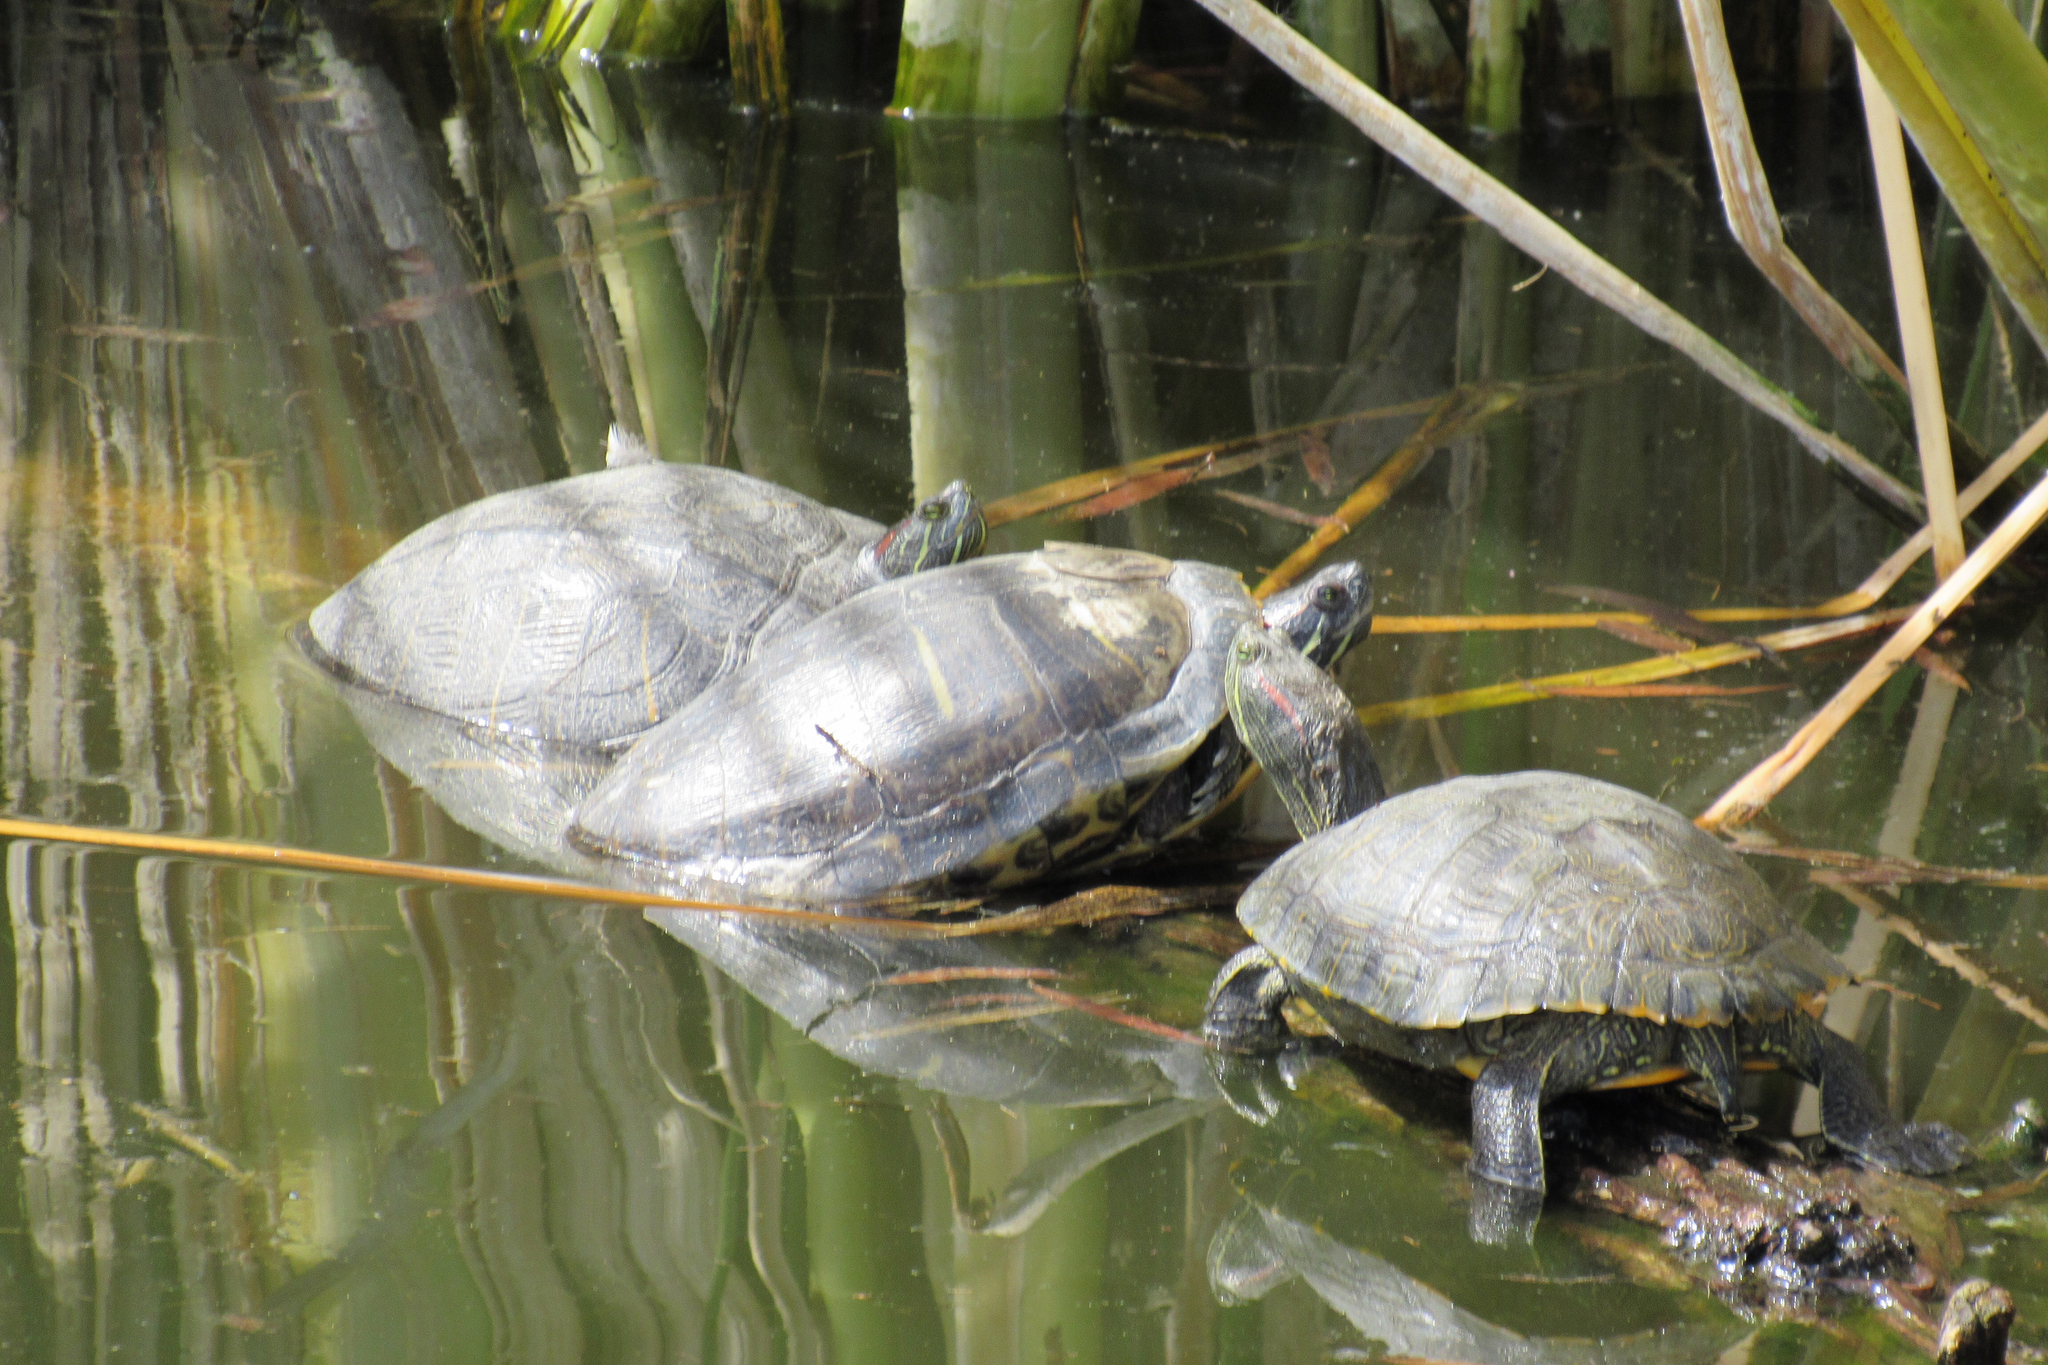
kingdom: Animalia
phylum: Chordata
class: Testudines
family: Emydidae
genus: Trachemys
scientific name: Trachemys scripta
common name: Slider
